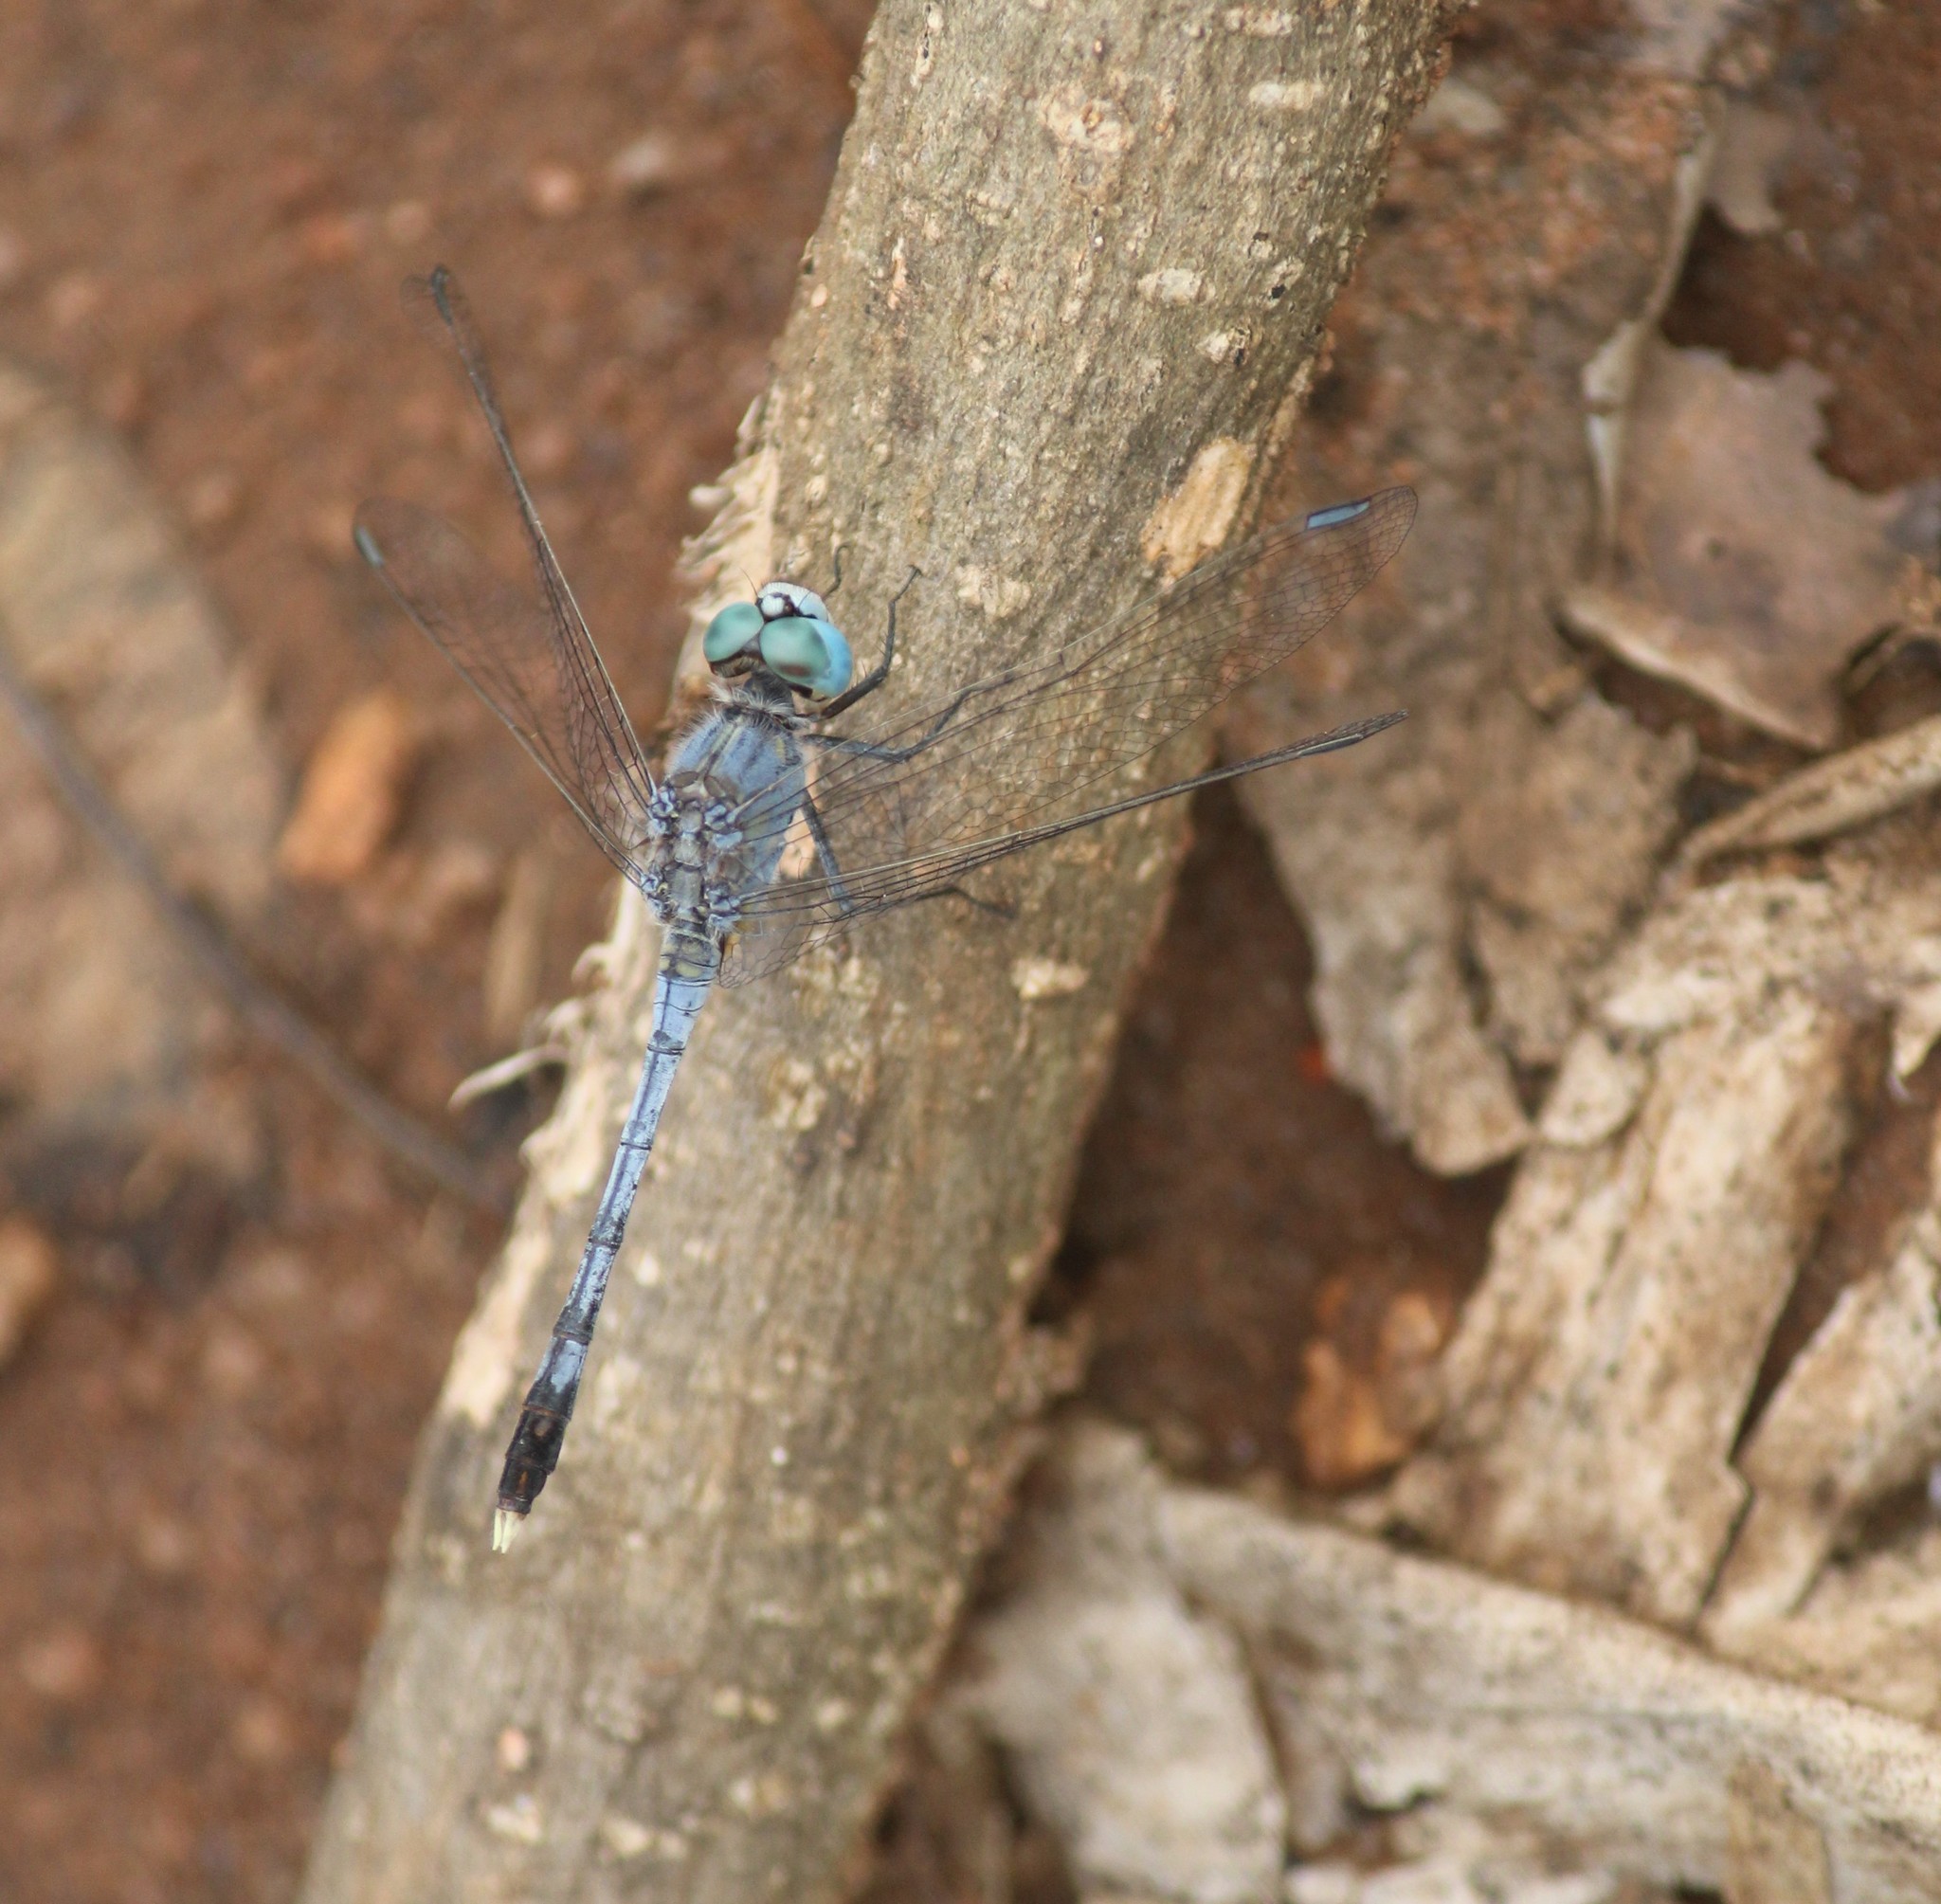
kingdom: Animalia
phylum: Arthropoda
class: Insecta
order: Odonata
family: Libellulidae
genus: Diplacodes
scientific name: Diplacodes trivialis
